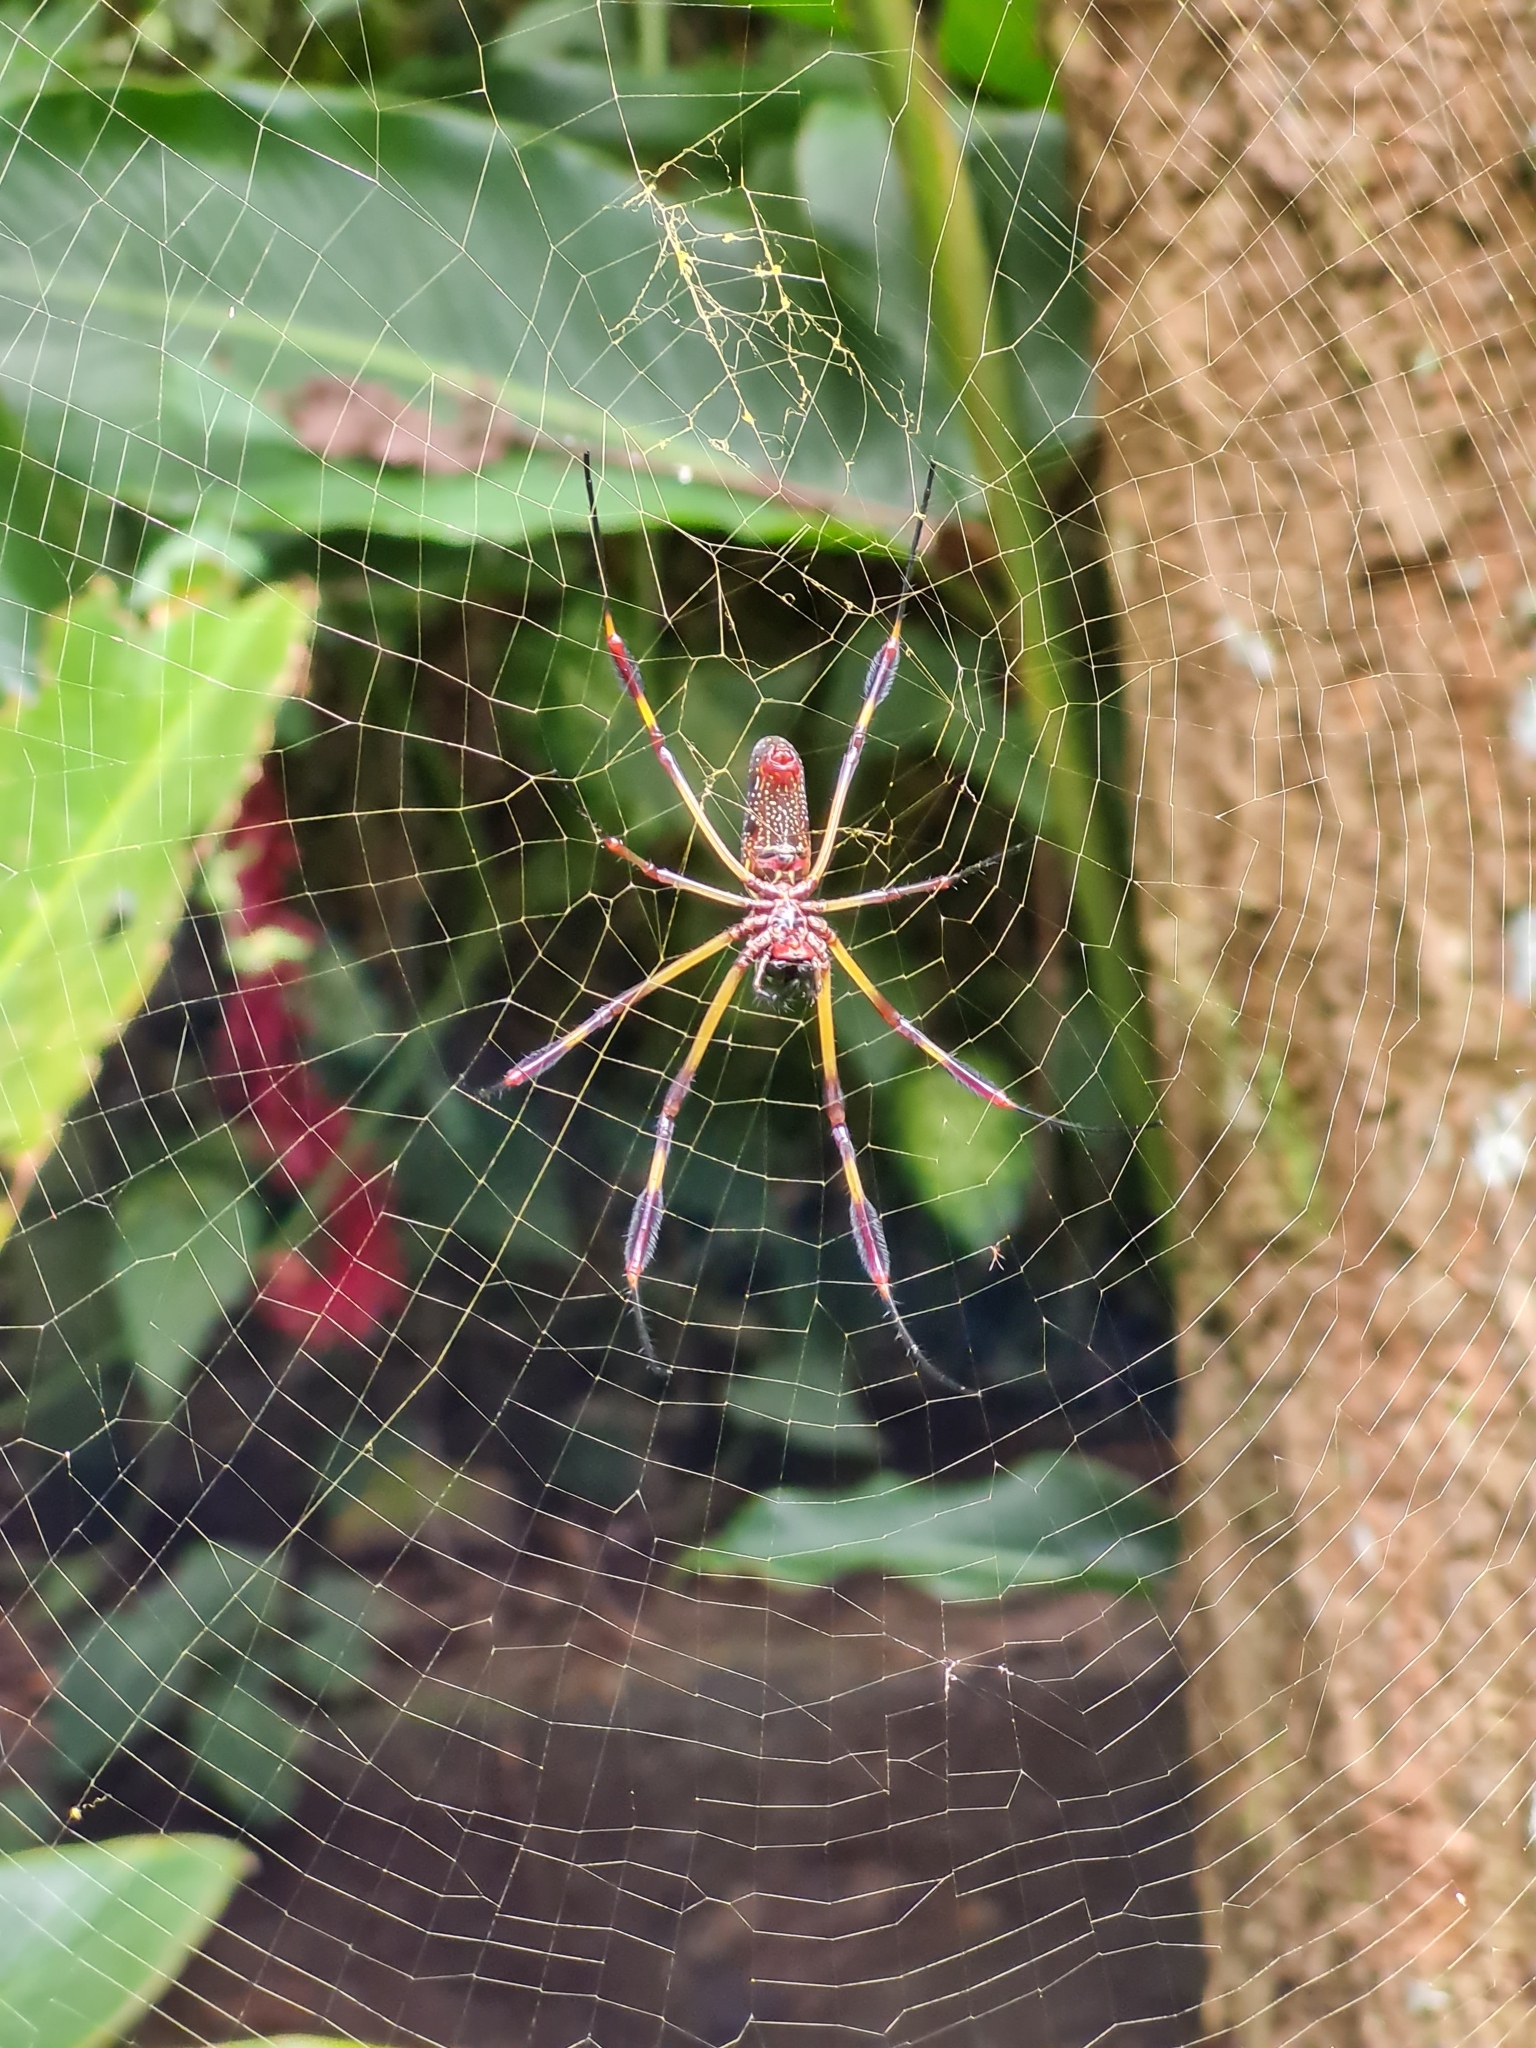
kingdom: Animalia
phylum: Arthropoda
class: Arachnida
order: Araneae
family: Araneidae
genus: Trichonephila
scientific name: Trichonephila clavipes
